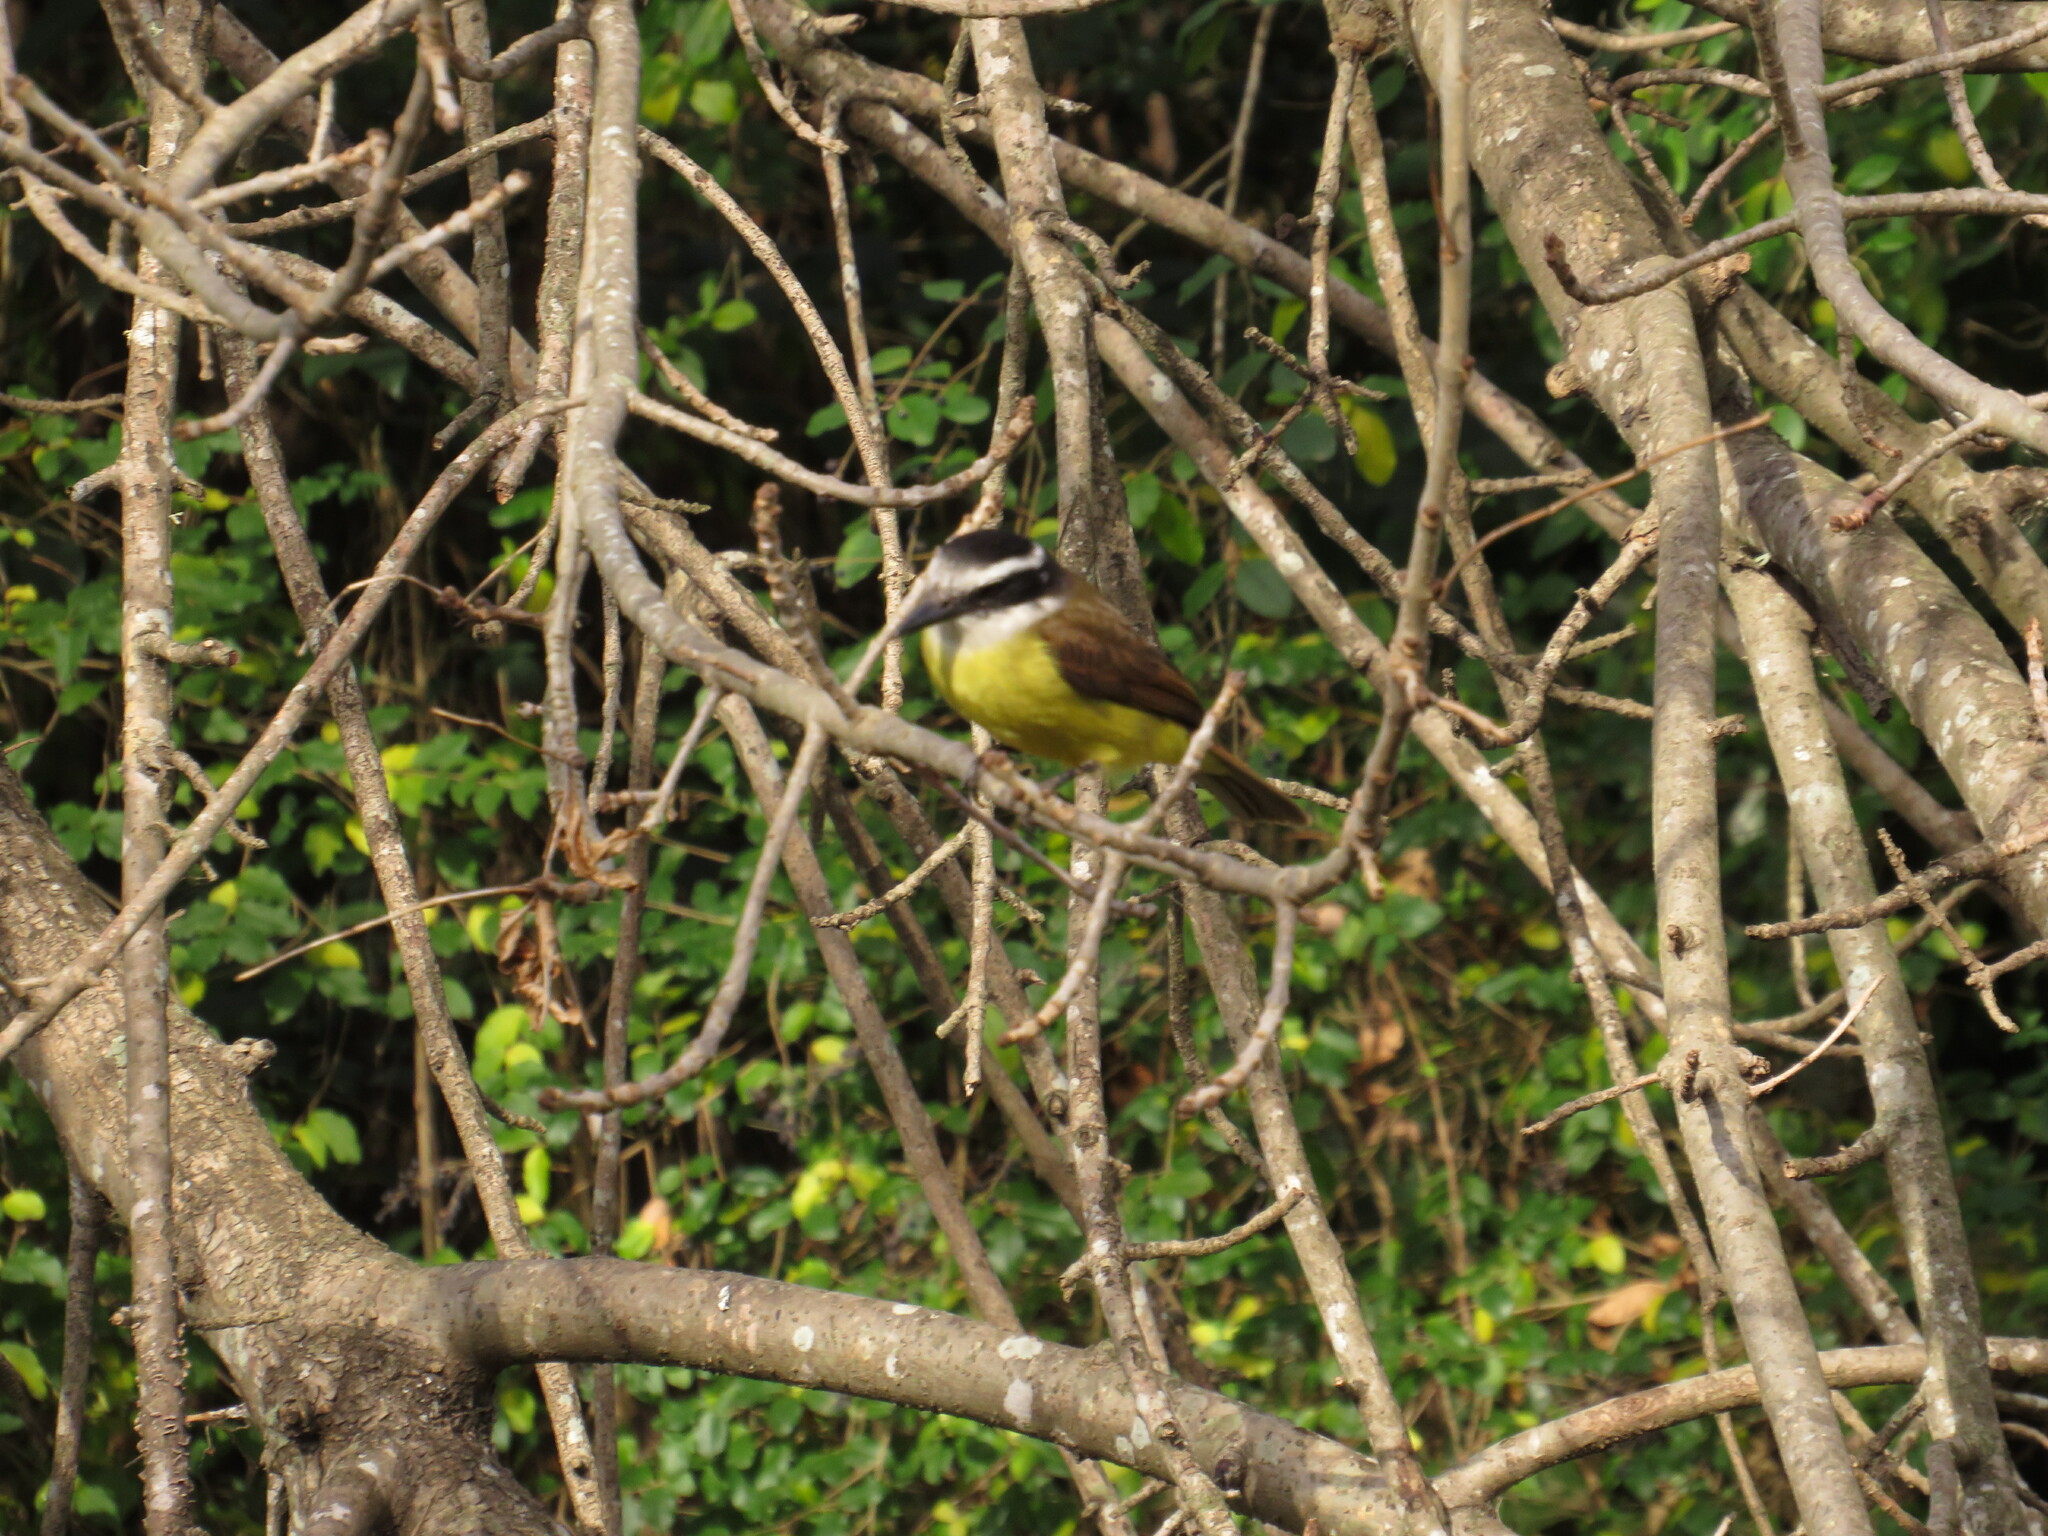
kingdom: Animalia
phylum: Chordata
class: Aves
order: Passeriformes
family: Tyrannidae
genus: Pitangus
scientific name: Pitangus sulphuratus
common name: Great kiskadee
